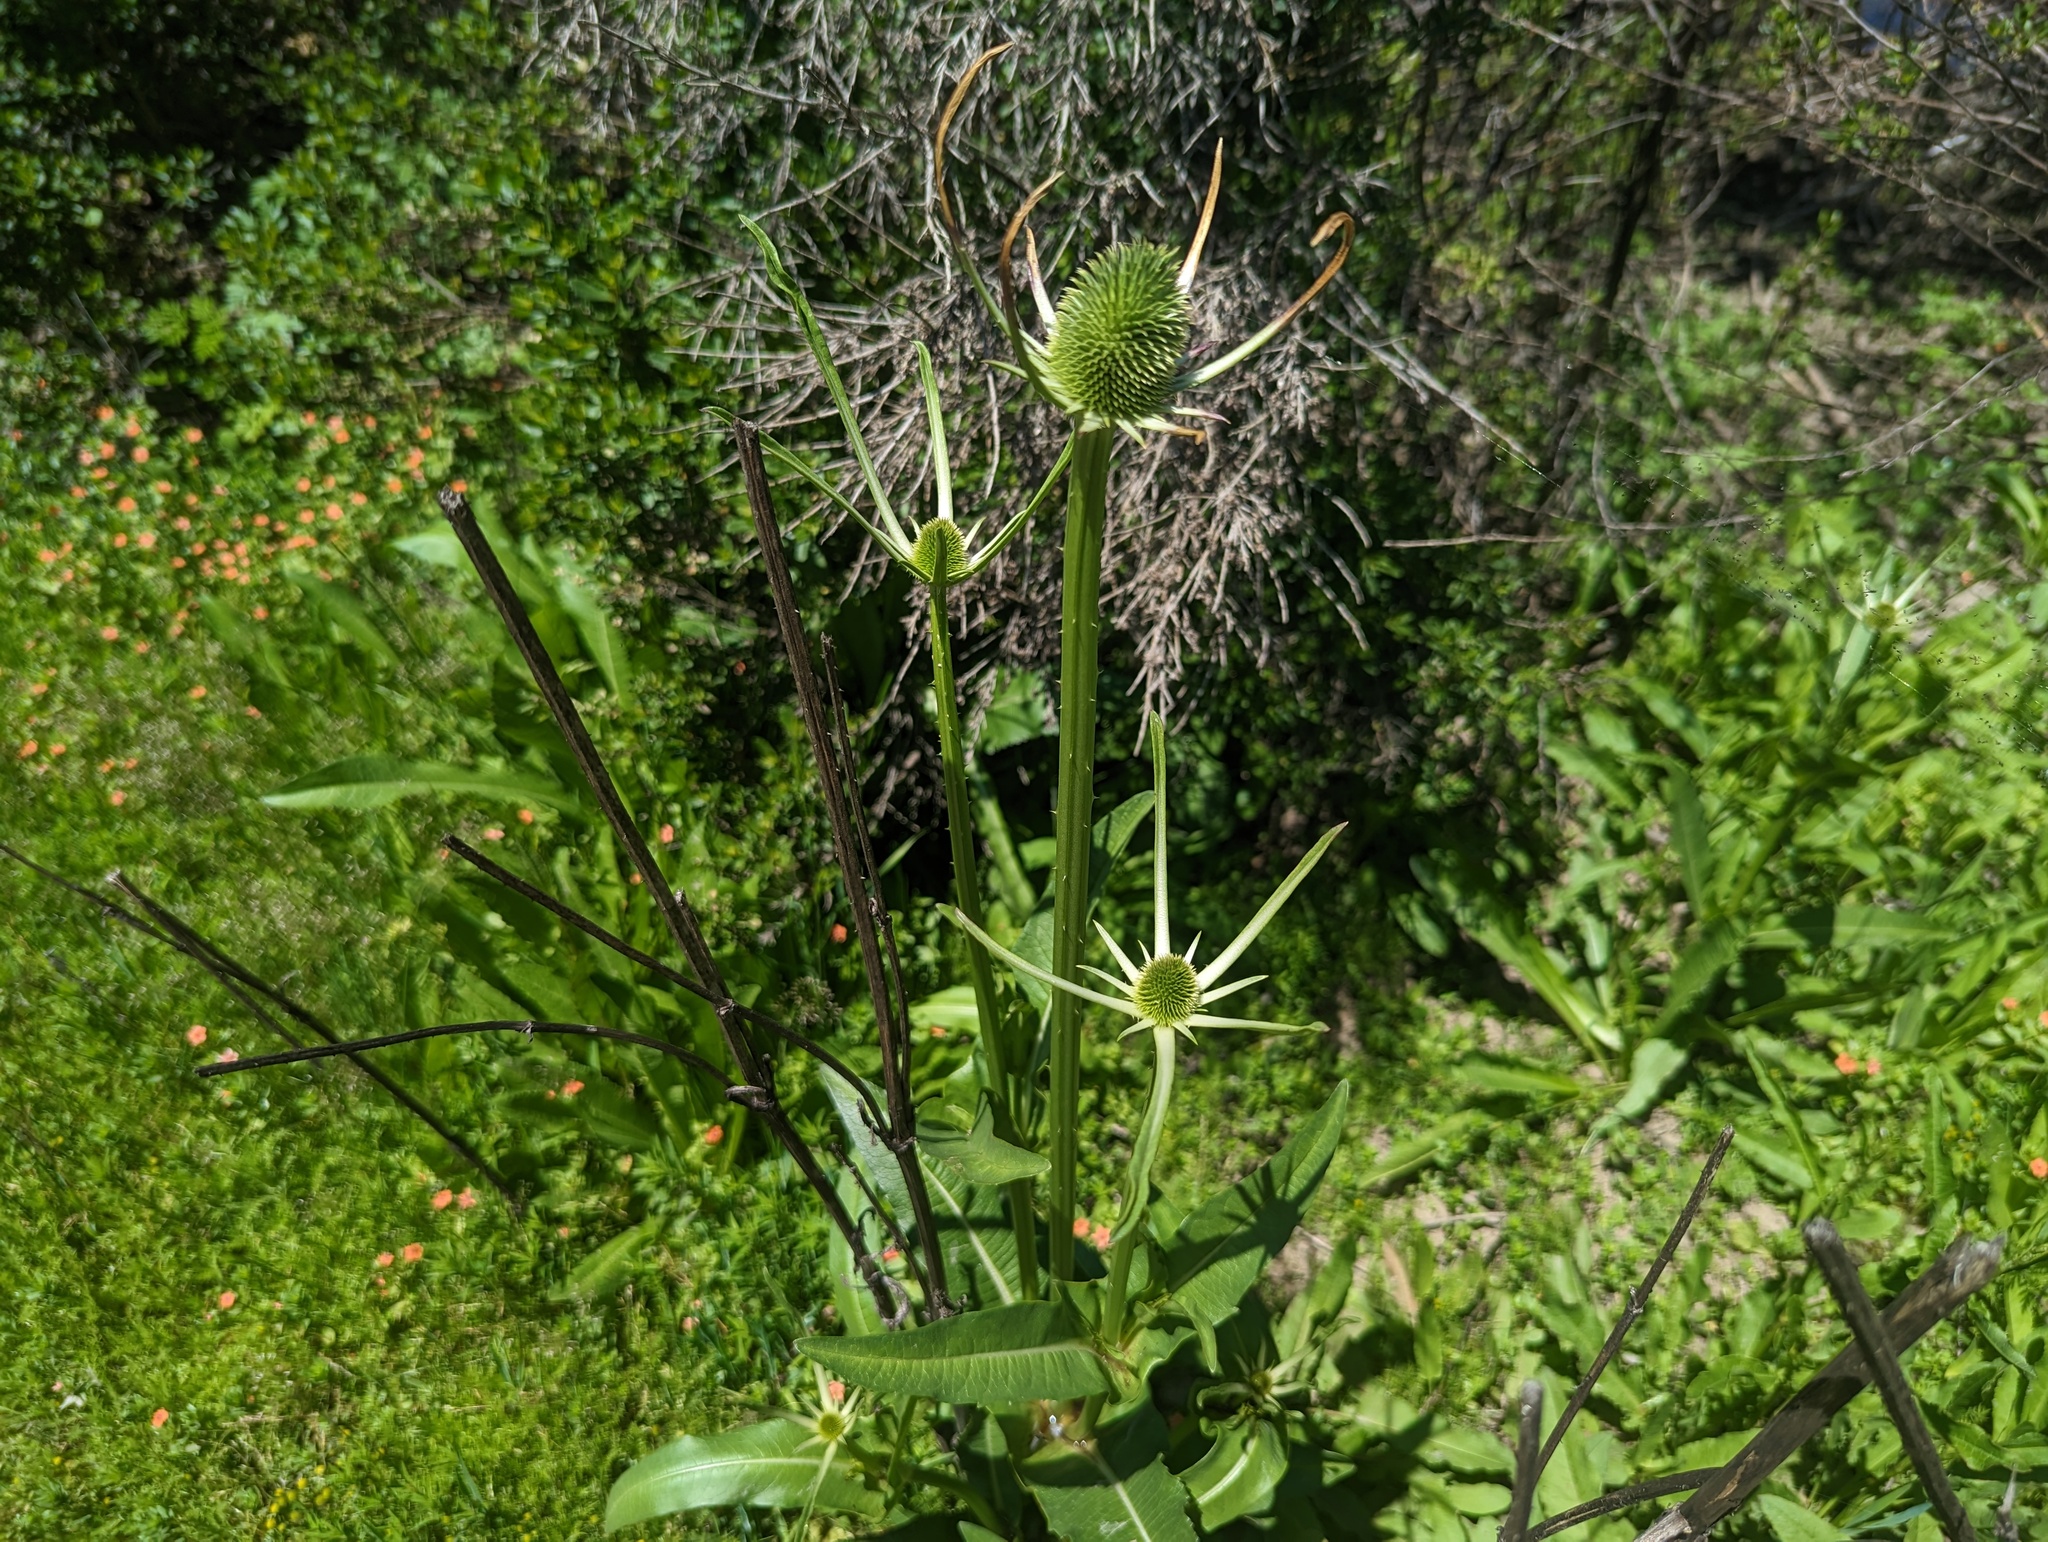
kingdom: Plantae
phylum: Tracheophyta
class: Magnoliopsida
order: Dipsacales
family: Caprifoliaceae
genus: Dipsacus
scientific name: Dipsacus sativus
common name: Fuller's teasel
